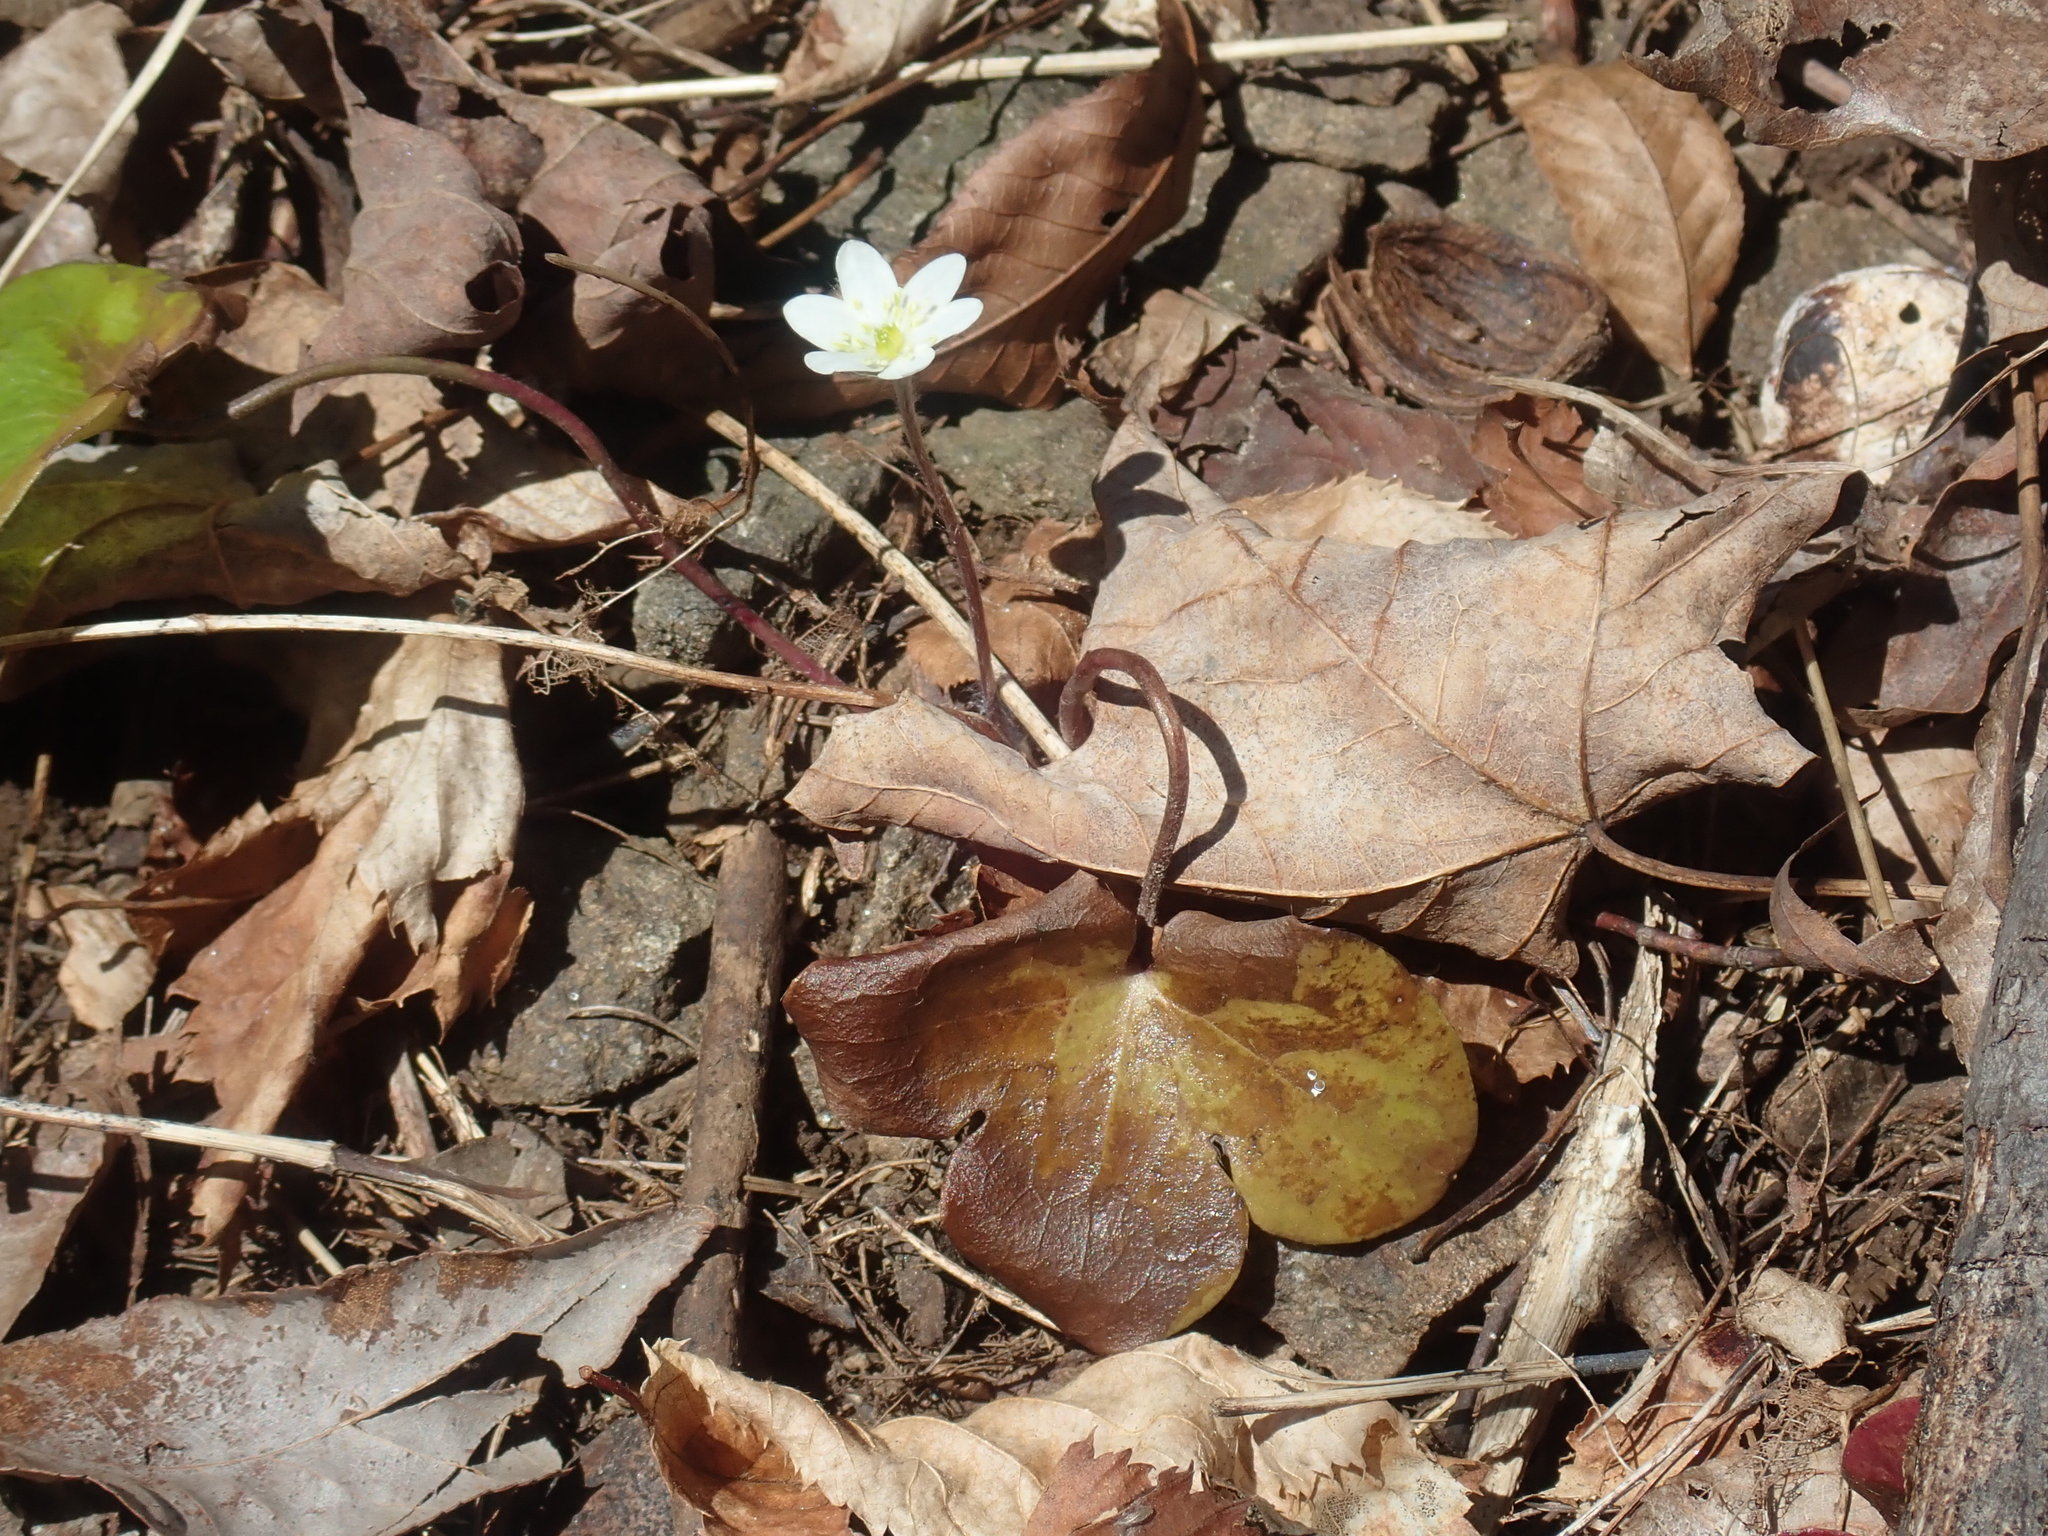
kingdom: Plantae
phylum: Tracheophyta
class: Magnoliopsida
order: Ranunculales
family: Ranunculaceae
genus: Hepatica
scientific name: Hepatica americana
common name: American hepatica
